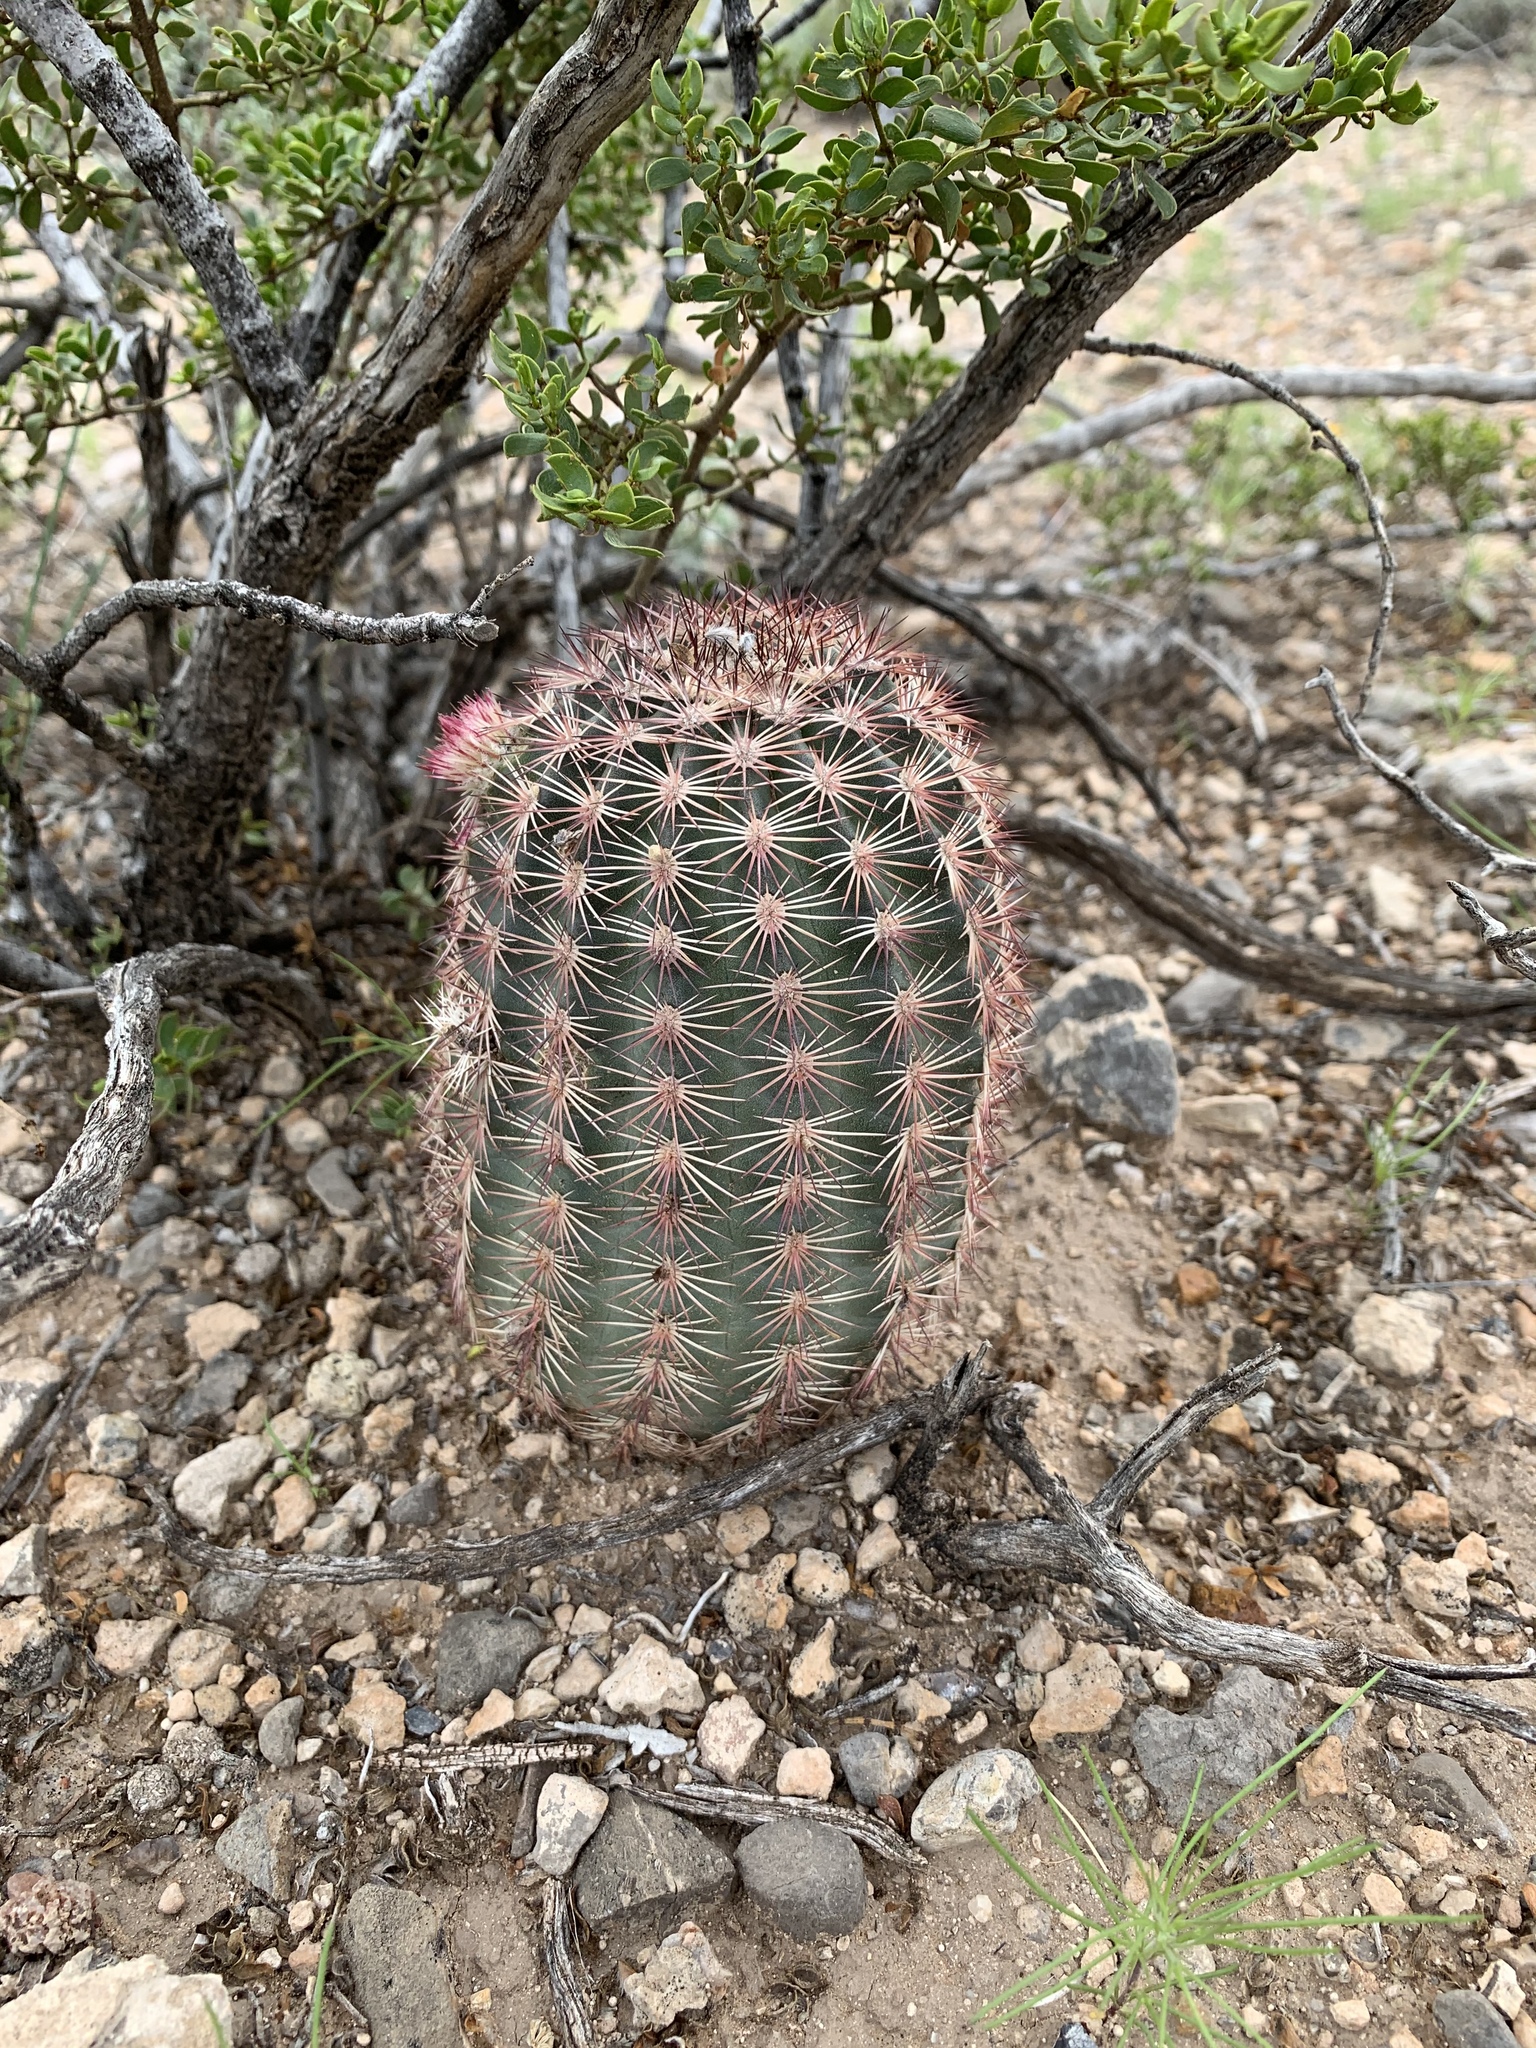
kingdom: Plantae
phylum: Tracheophyta
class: Magnoliopsida
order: Caryophyllales
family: Cactaceae
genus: Echinocereus
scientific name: Echinocereus dasyacanthus
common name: Spiny hedgehog cactus
